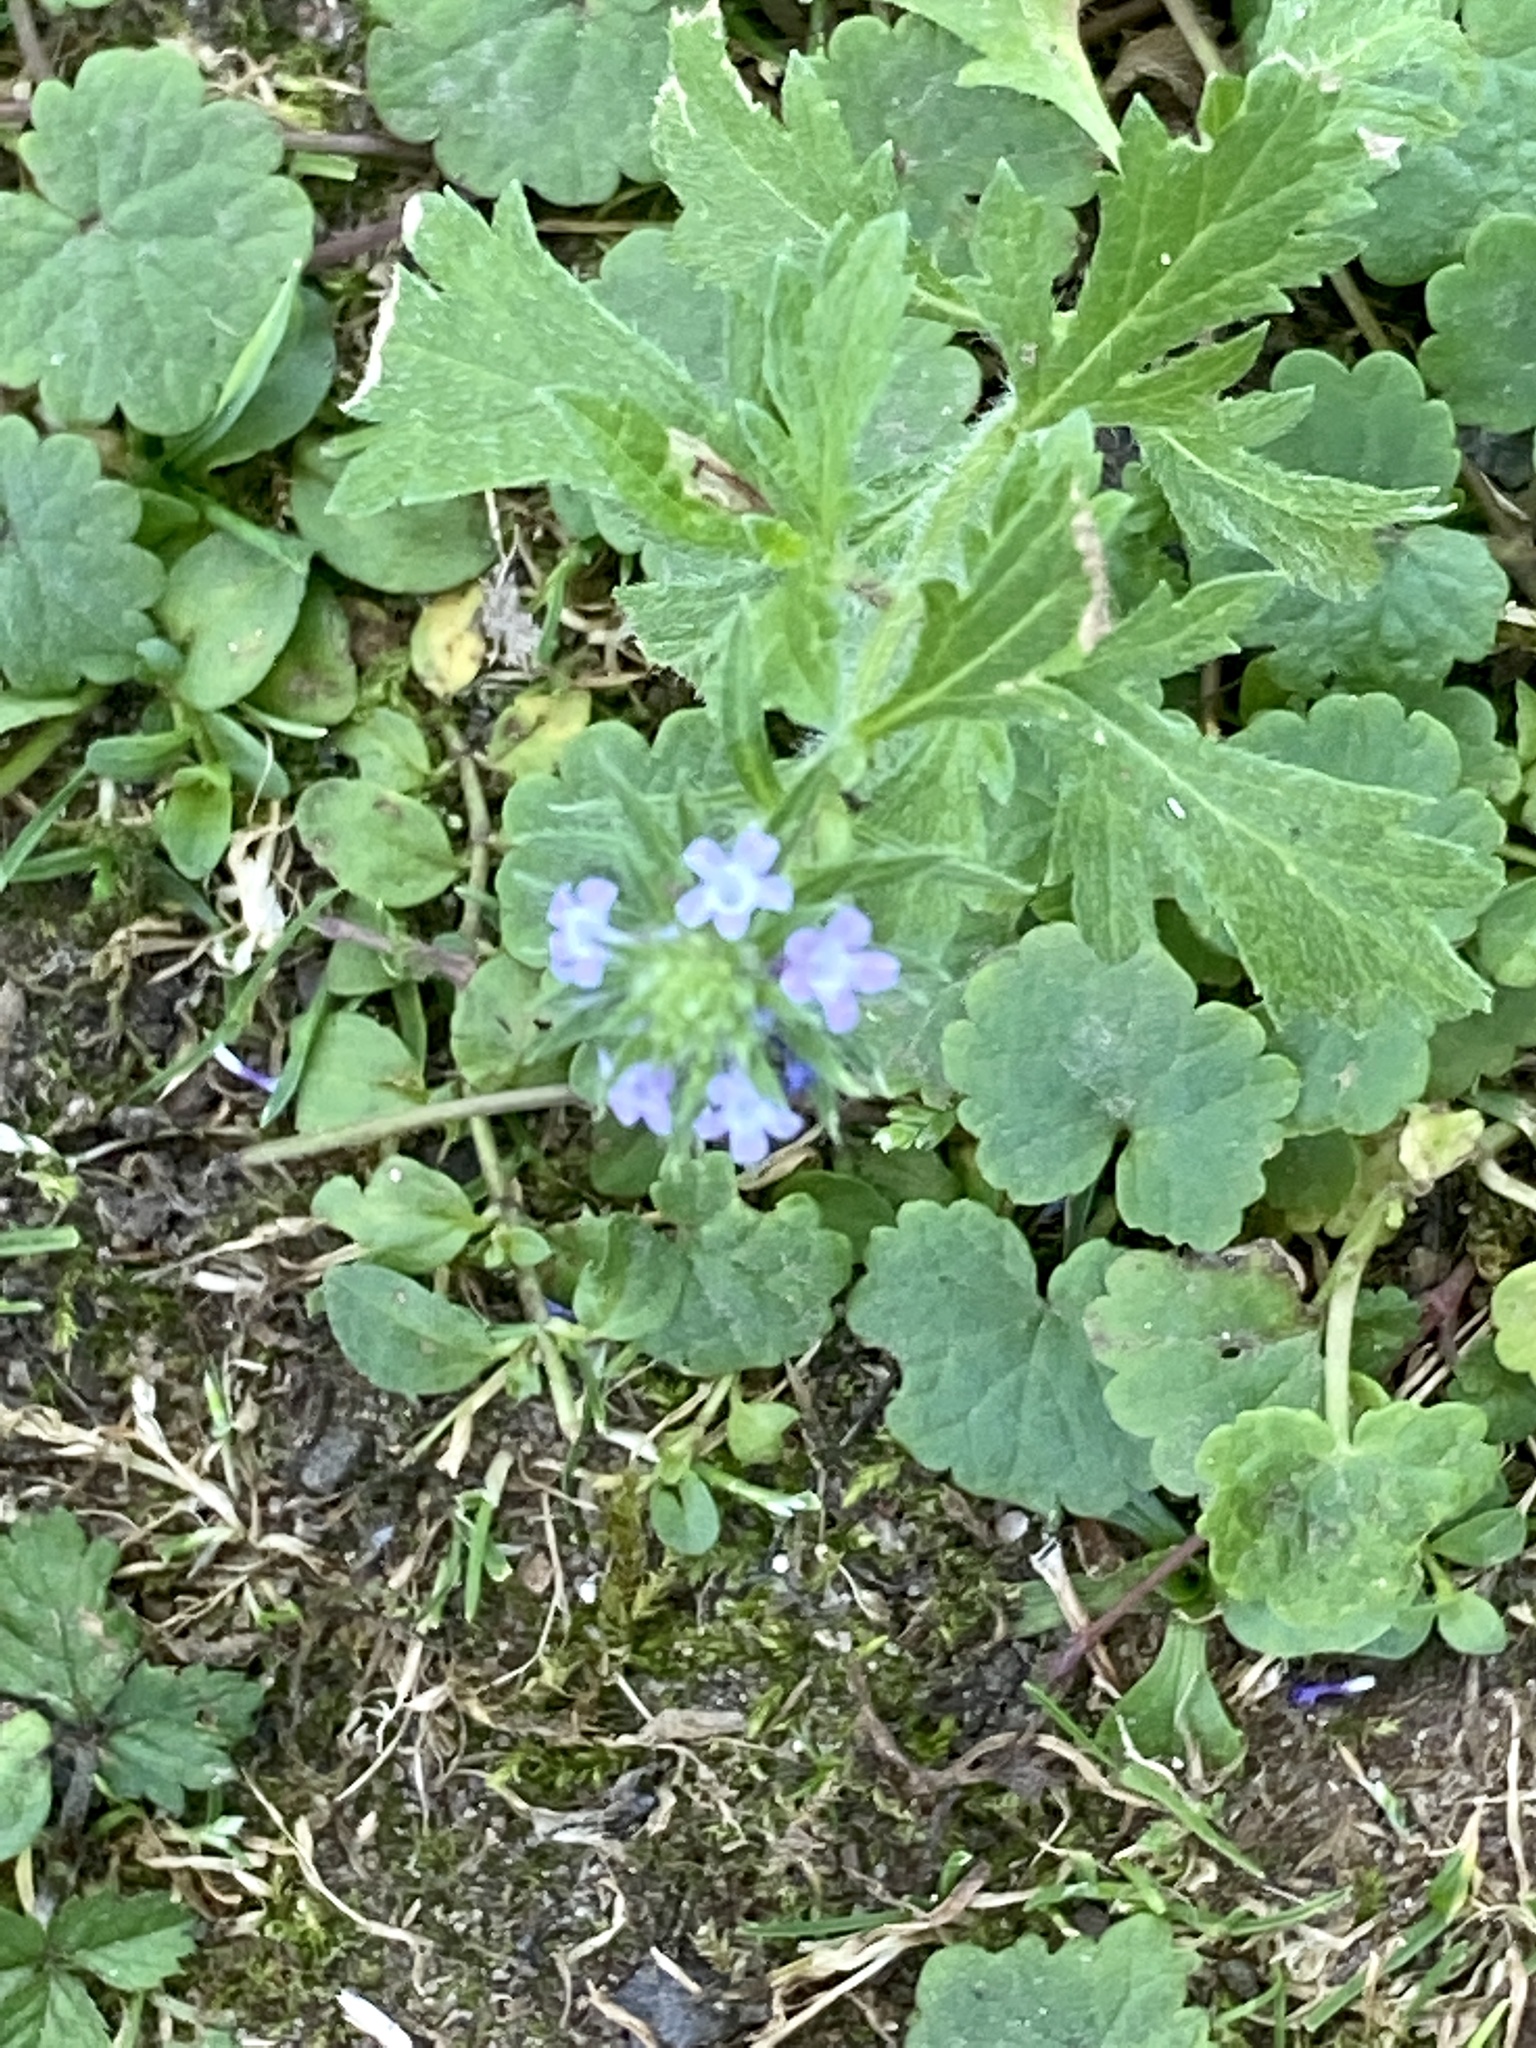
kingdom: Plantae
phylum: Tracheophyta
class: Magnoliopsida
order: Lamiales
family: Verbenaceae
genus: Verbena
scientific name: Verbena bracteata
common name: Bracted vervain
